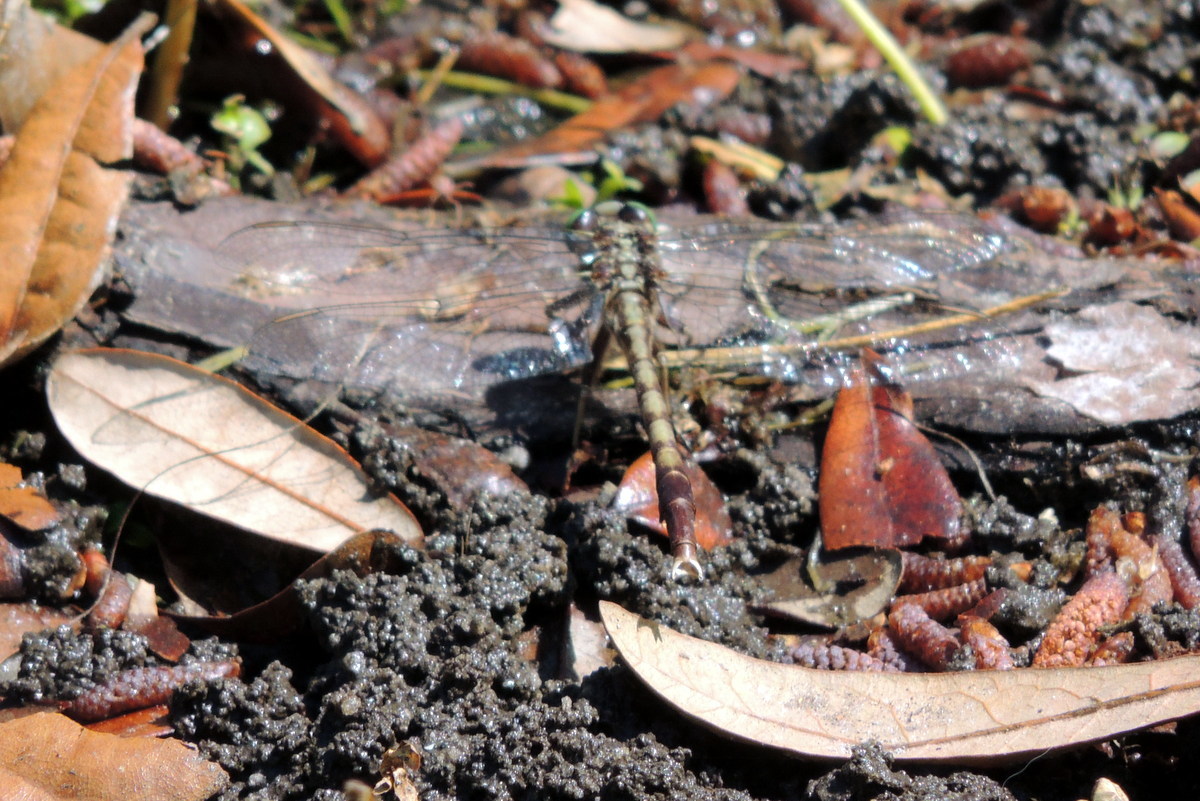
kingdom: Animalia
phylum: Arthropoda
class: Insecta
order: Odonata
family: Gomphidae
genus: Arigomphus
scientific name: Arigomphus pallidus
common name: Gray-green clubtail
